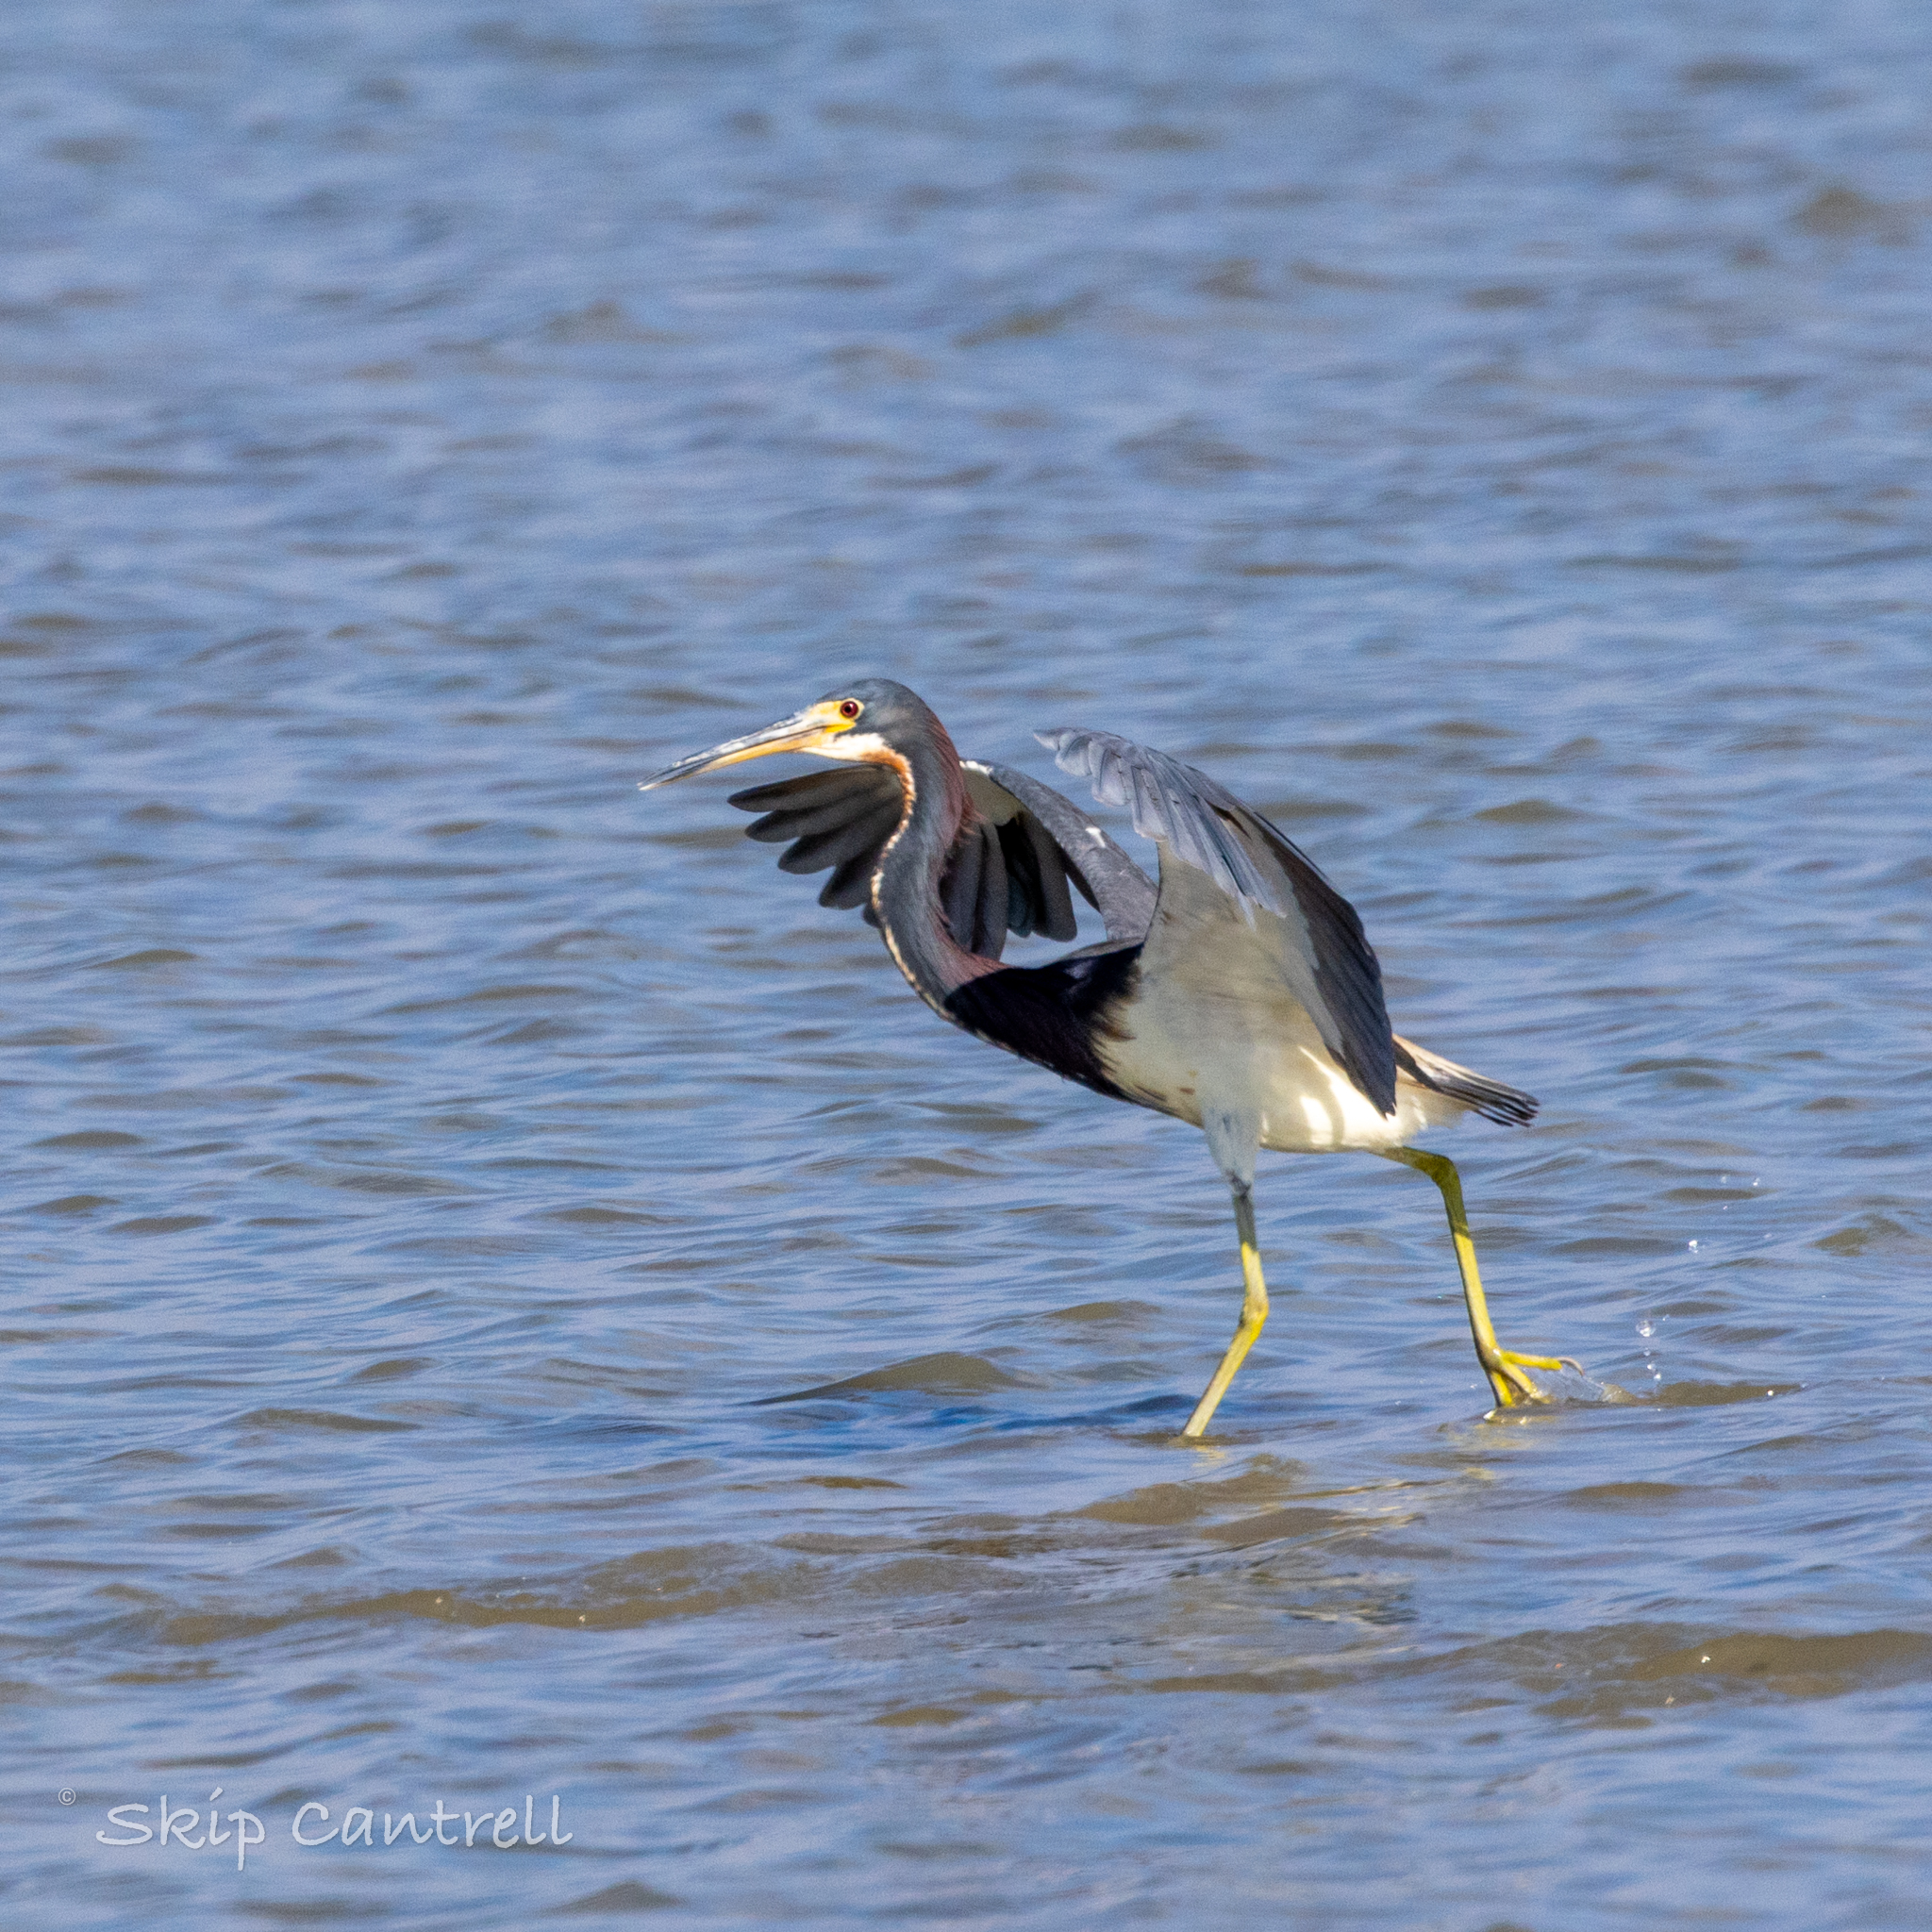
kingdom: Animalia
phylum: Chordata
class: Aves
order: Pelecaniformes
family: Ardeidae
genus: Egretta
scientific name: Egretta tricolor
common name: Tricolored heron
